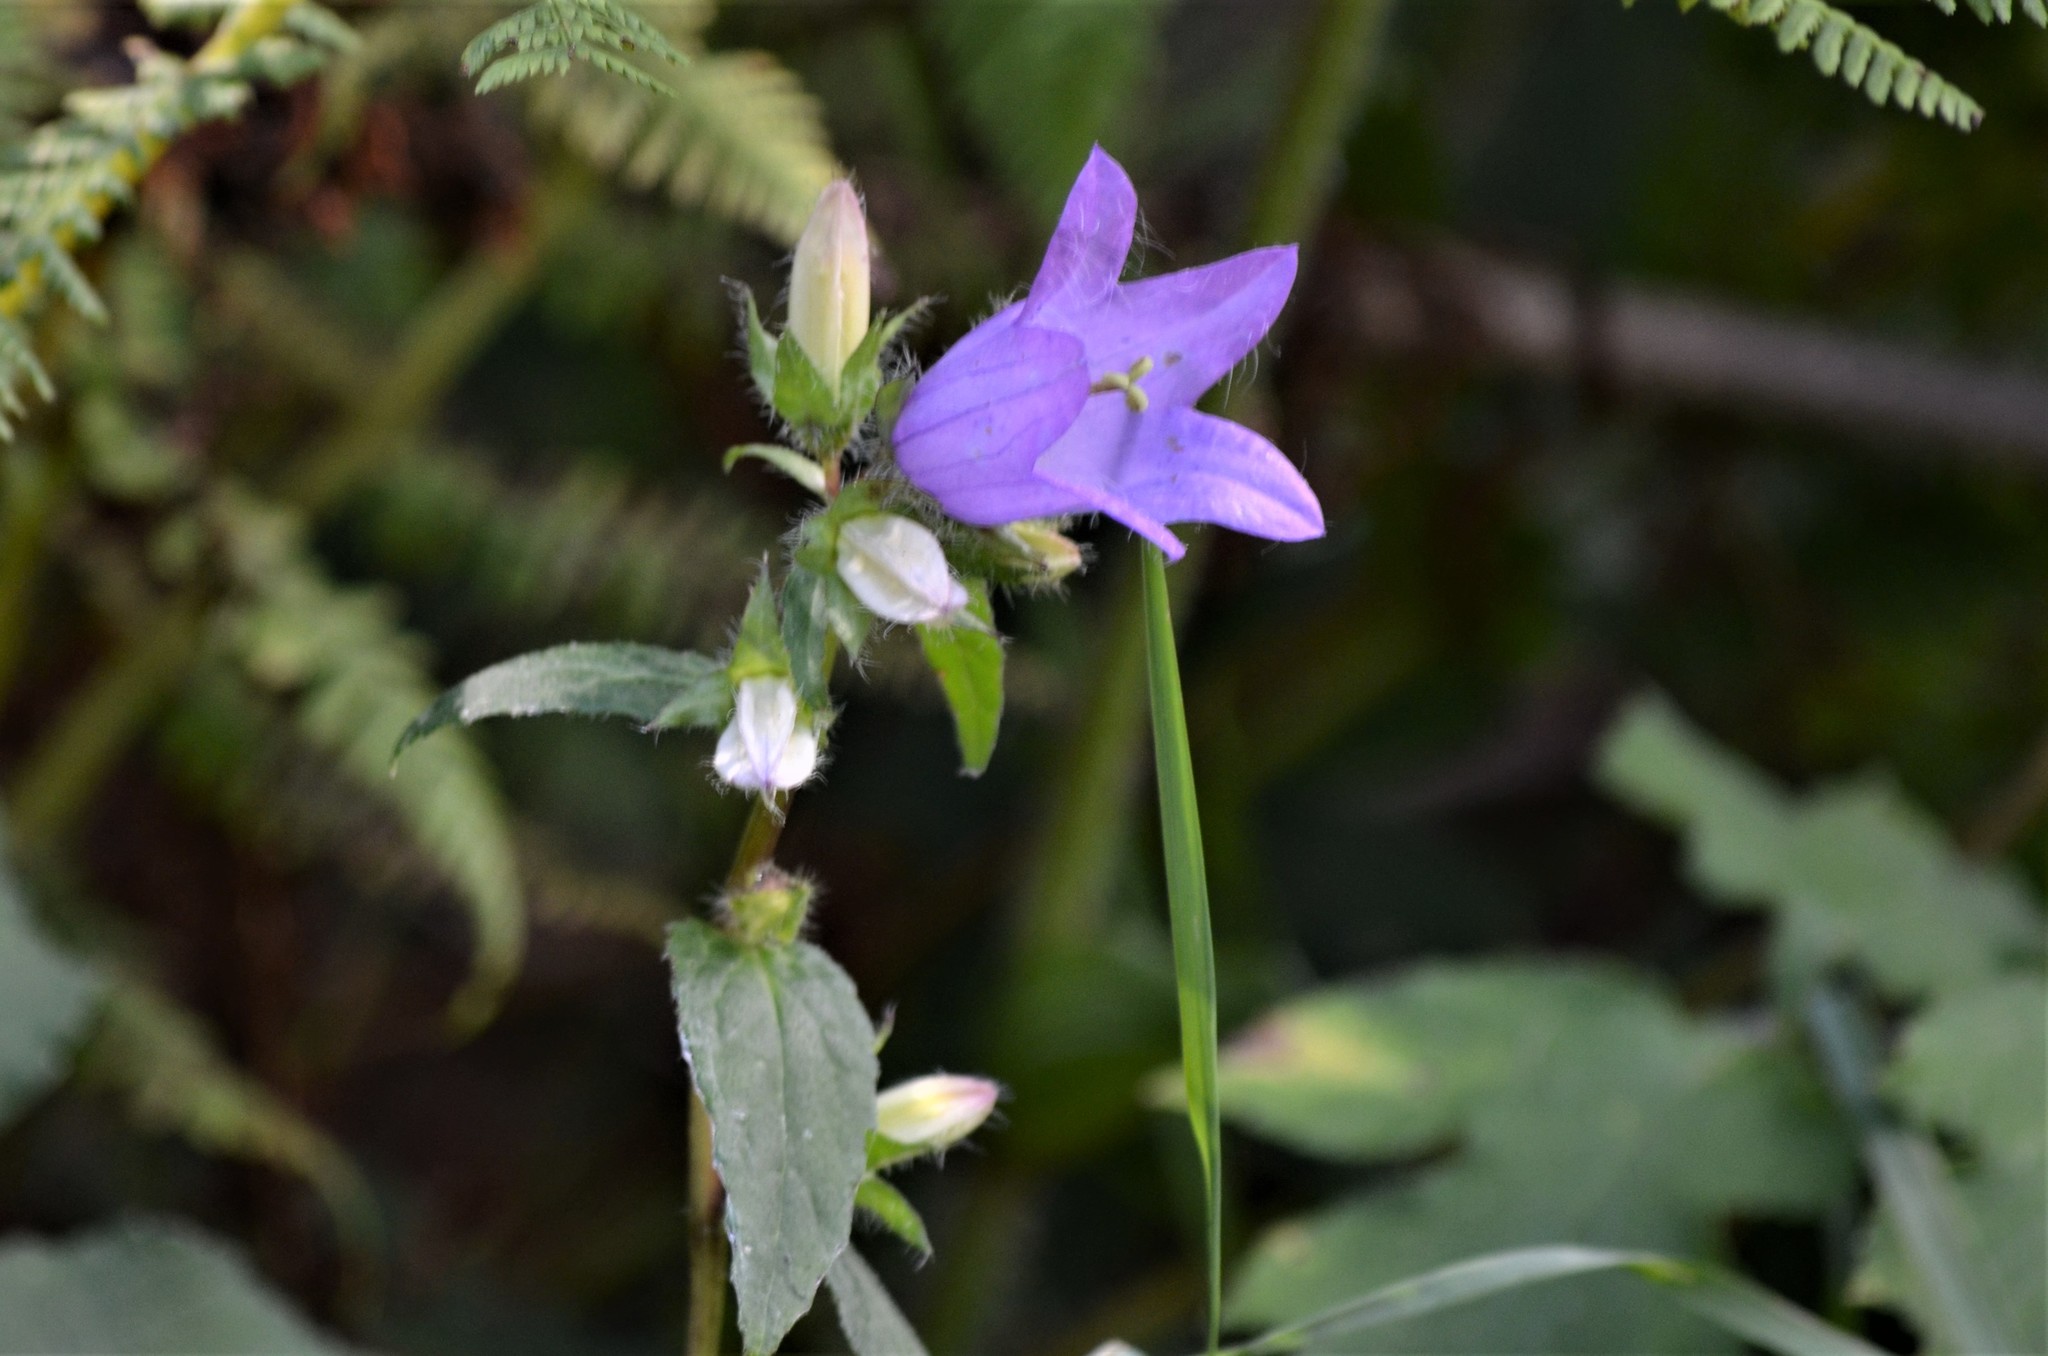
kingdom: Plantae
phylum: Tracheophyta
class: Magnoliopsida
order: Asterales
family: Campanulaceae
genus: Campanula
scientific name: Campanula trachelium
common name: Nettle-leaved bellflower
